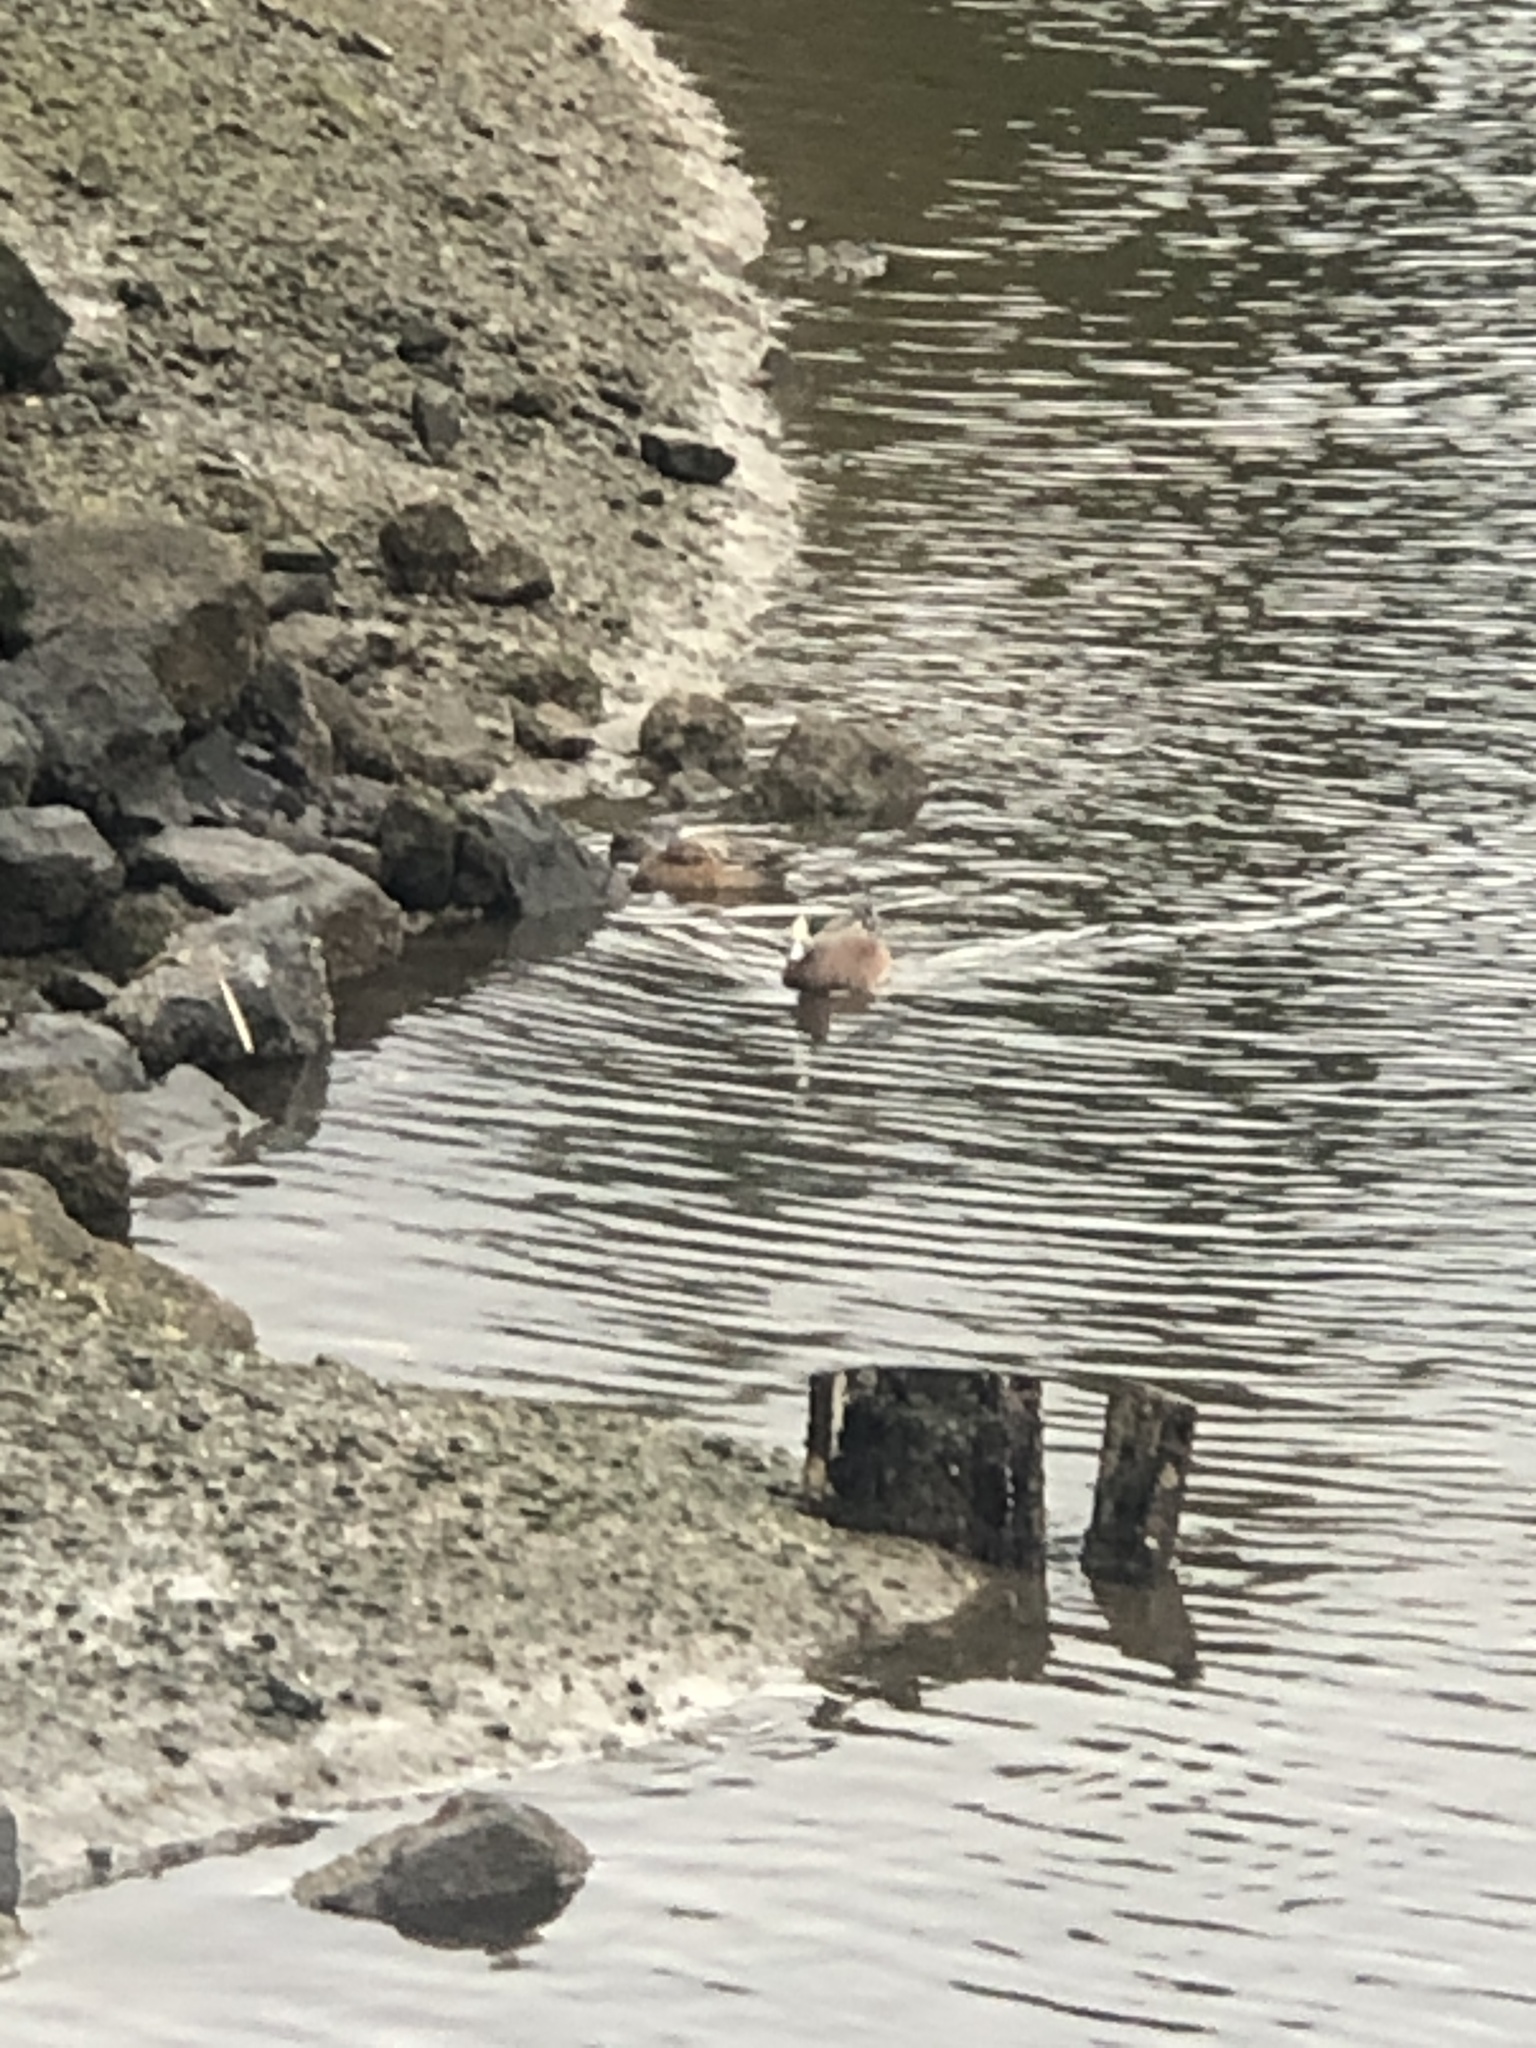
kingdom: Animalia
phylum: Chordata
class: Aves
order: Anseriformes
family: Anatidae
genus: Mareca
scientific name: Mareca americana
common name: American wigeon
